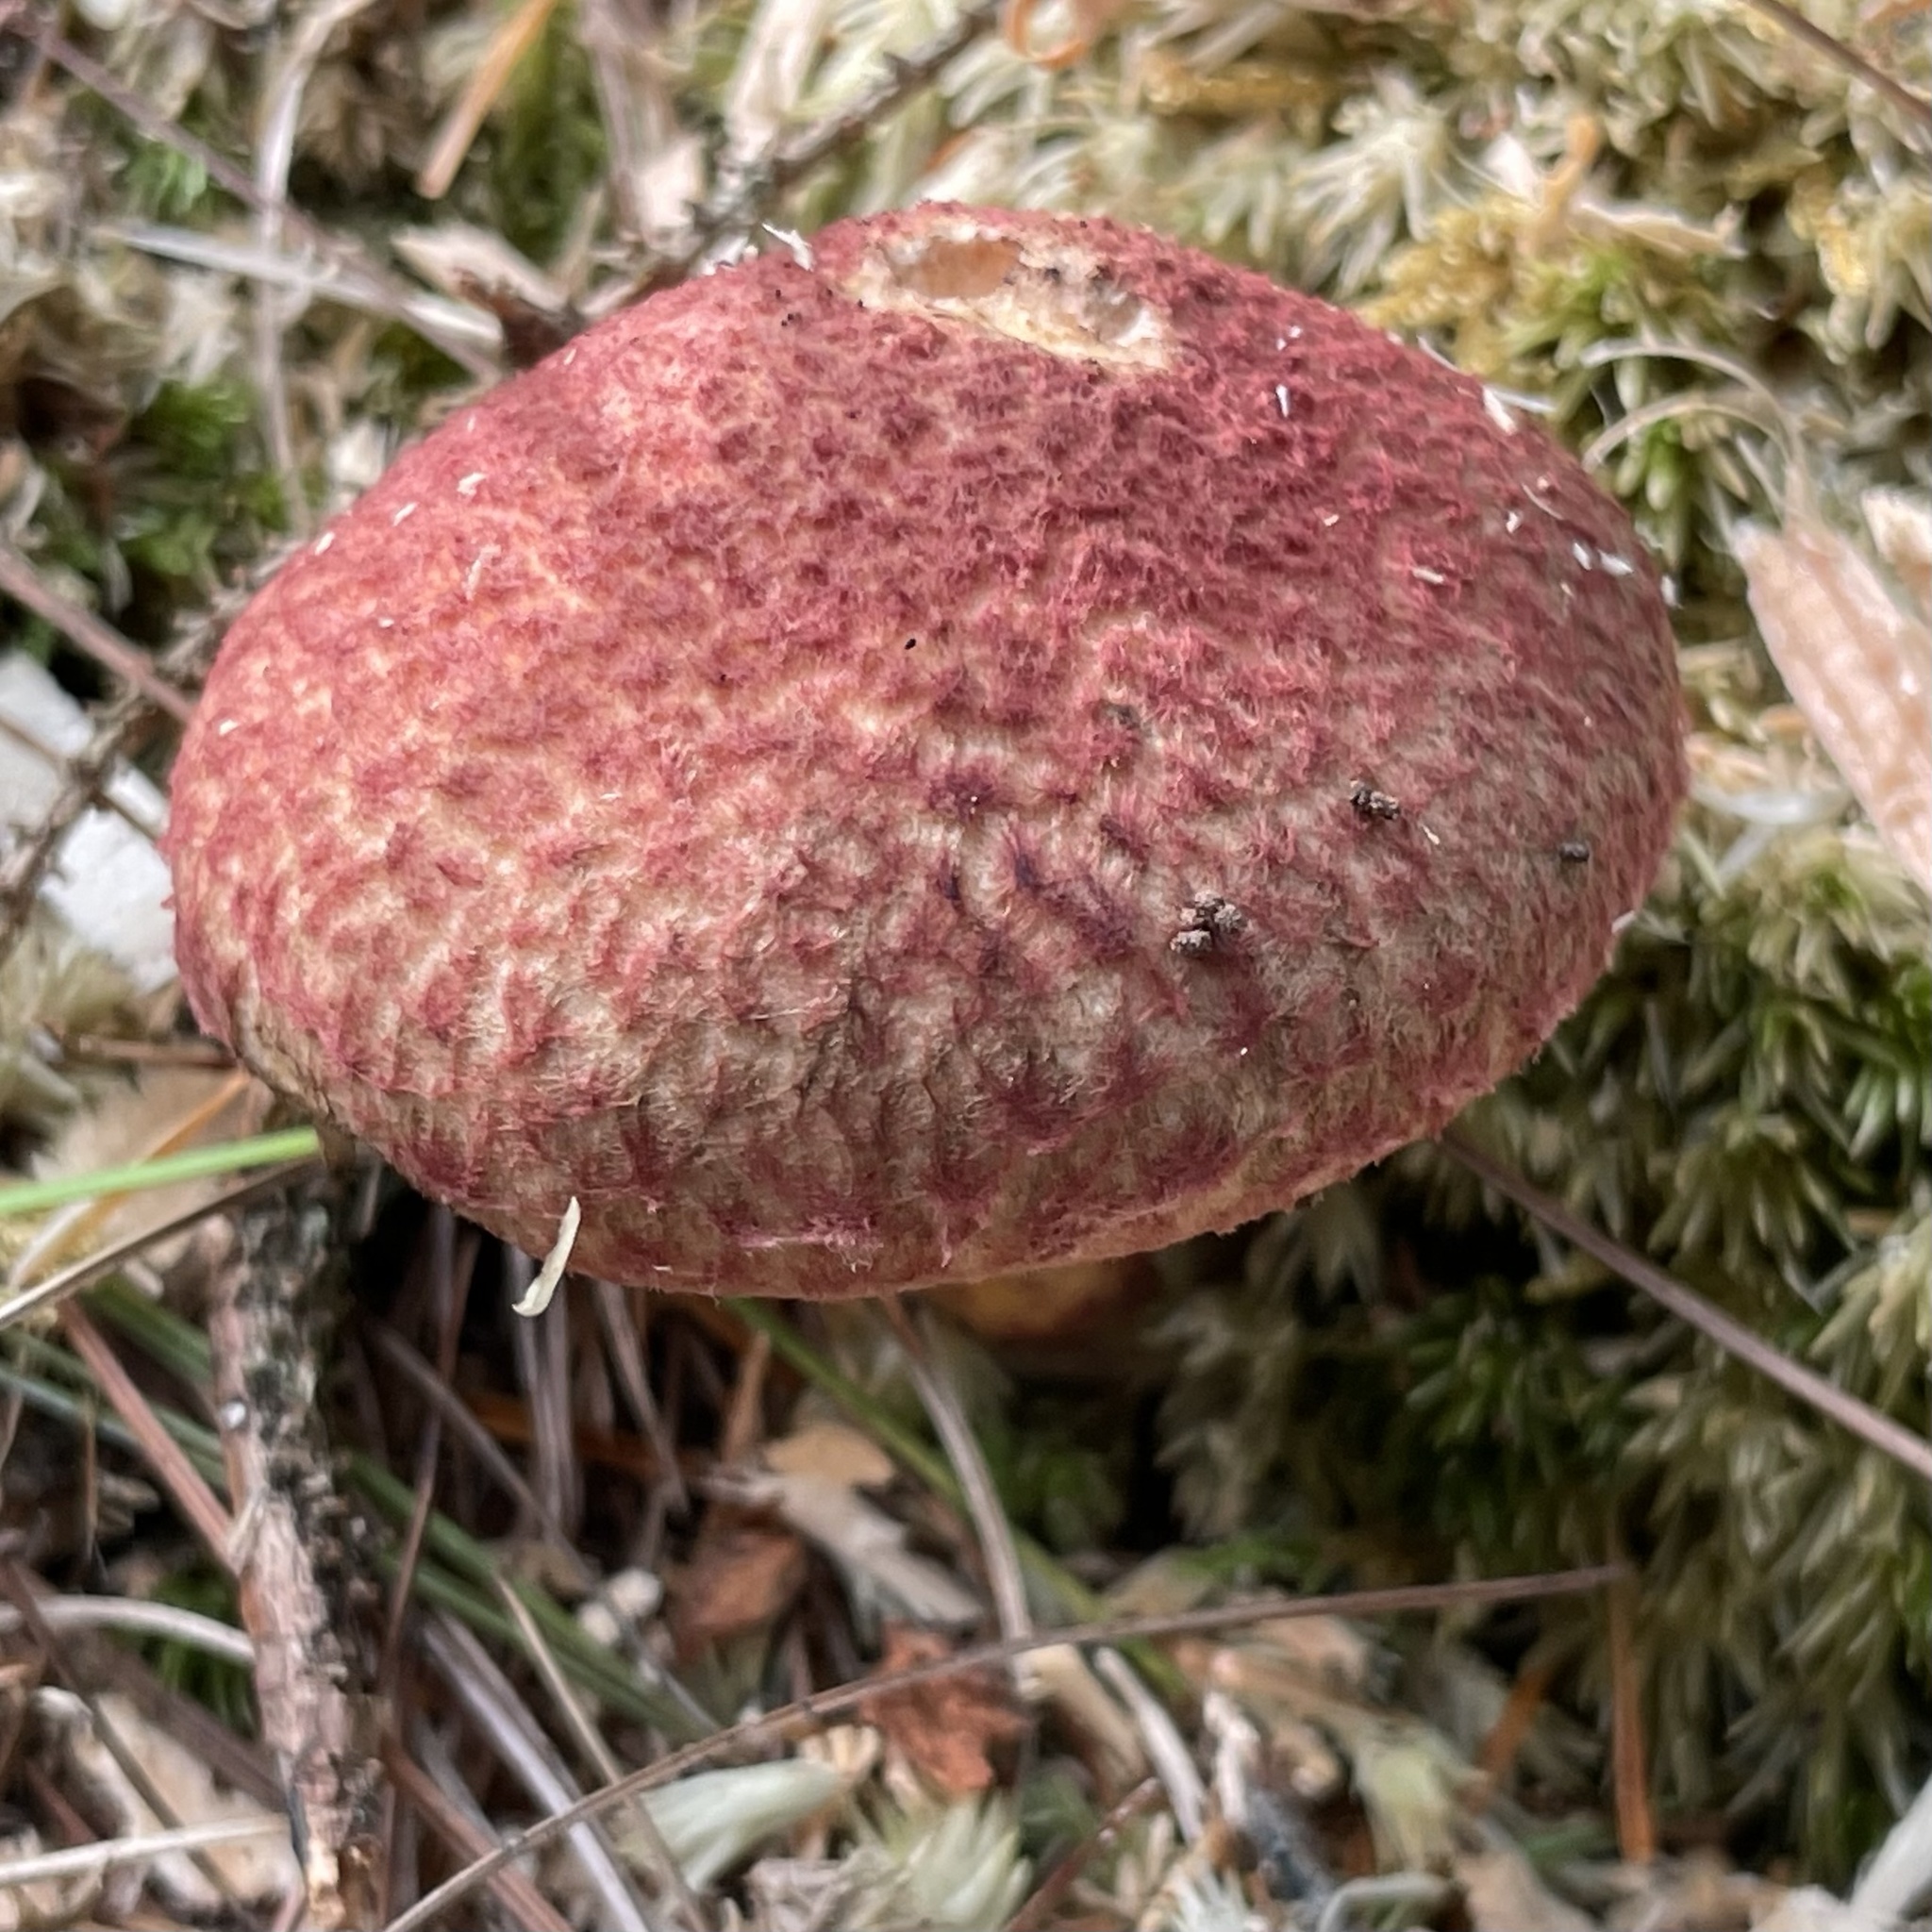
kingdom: Fungi
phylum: Basidiomycota
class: Agaricomycetes
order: Boletales
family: Suillaceae
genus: Suillus
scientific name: Suillus spraguei
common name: Painted suillus
